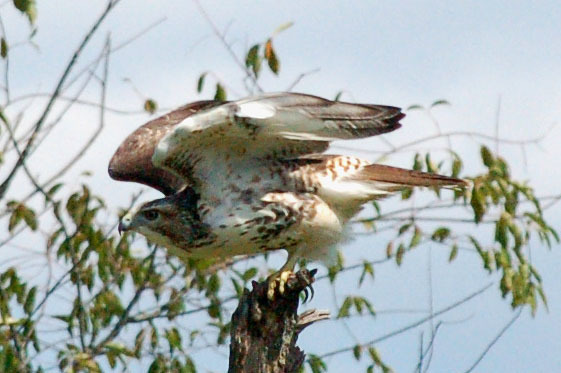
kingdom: Animalia
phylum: Chordata
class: Aves
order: Accipitriformes
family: Accipitridae
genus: Buteo
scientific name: Buteo jamaicensis
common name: Red-tailed hawk
